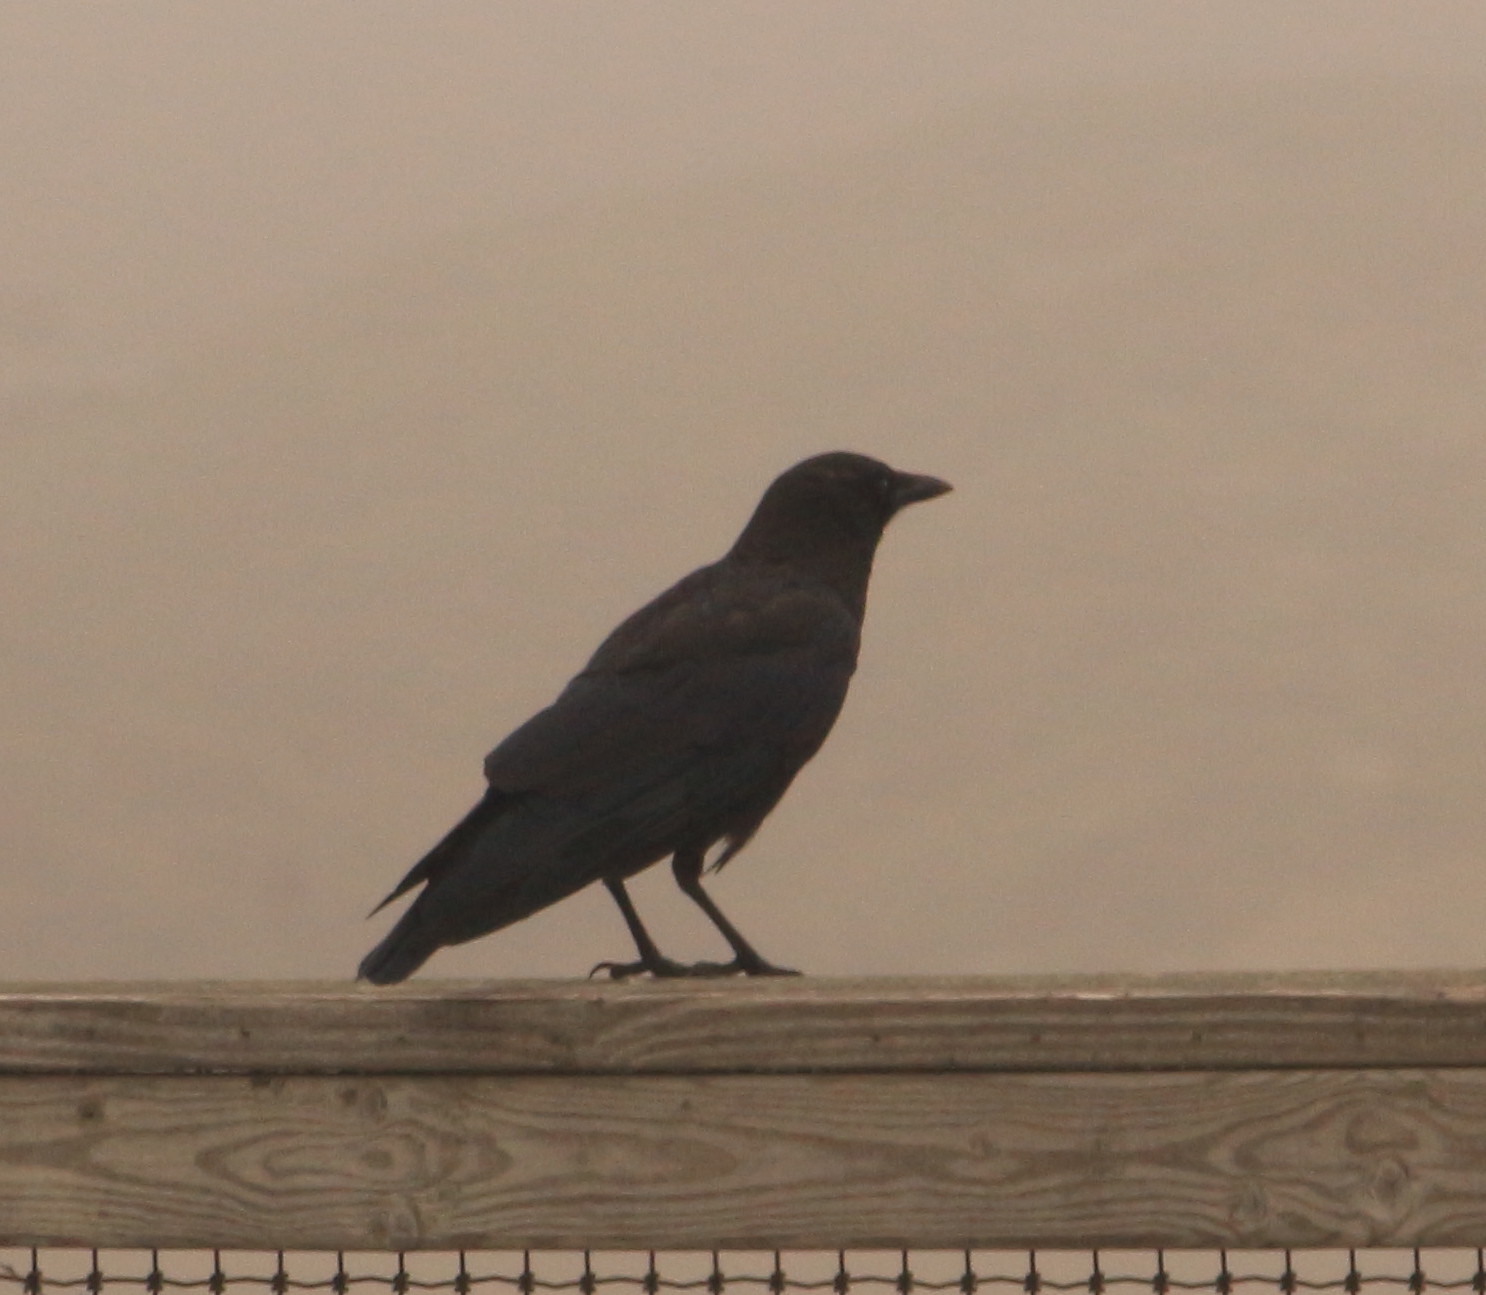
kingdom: Animalia
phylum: Chordata
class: Aves
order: Passeriformes
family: Corvidae
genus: Corvus
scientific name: Corvus brachyrhynchos
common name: American crow
